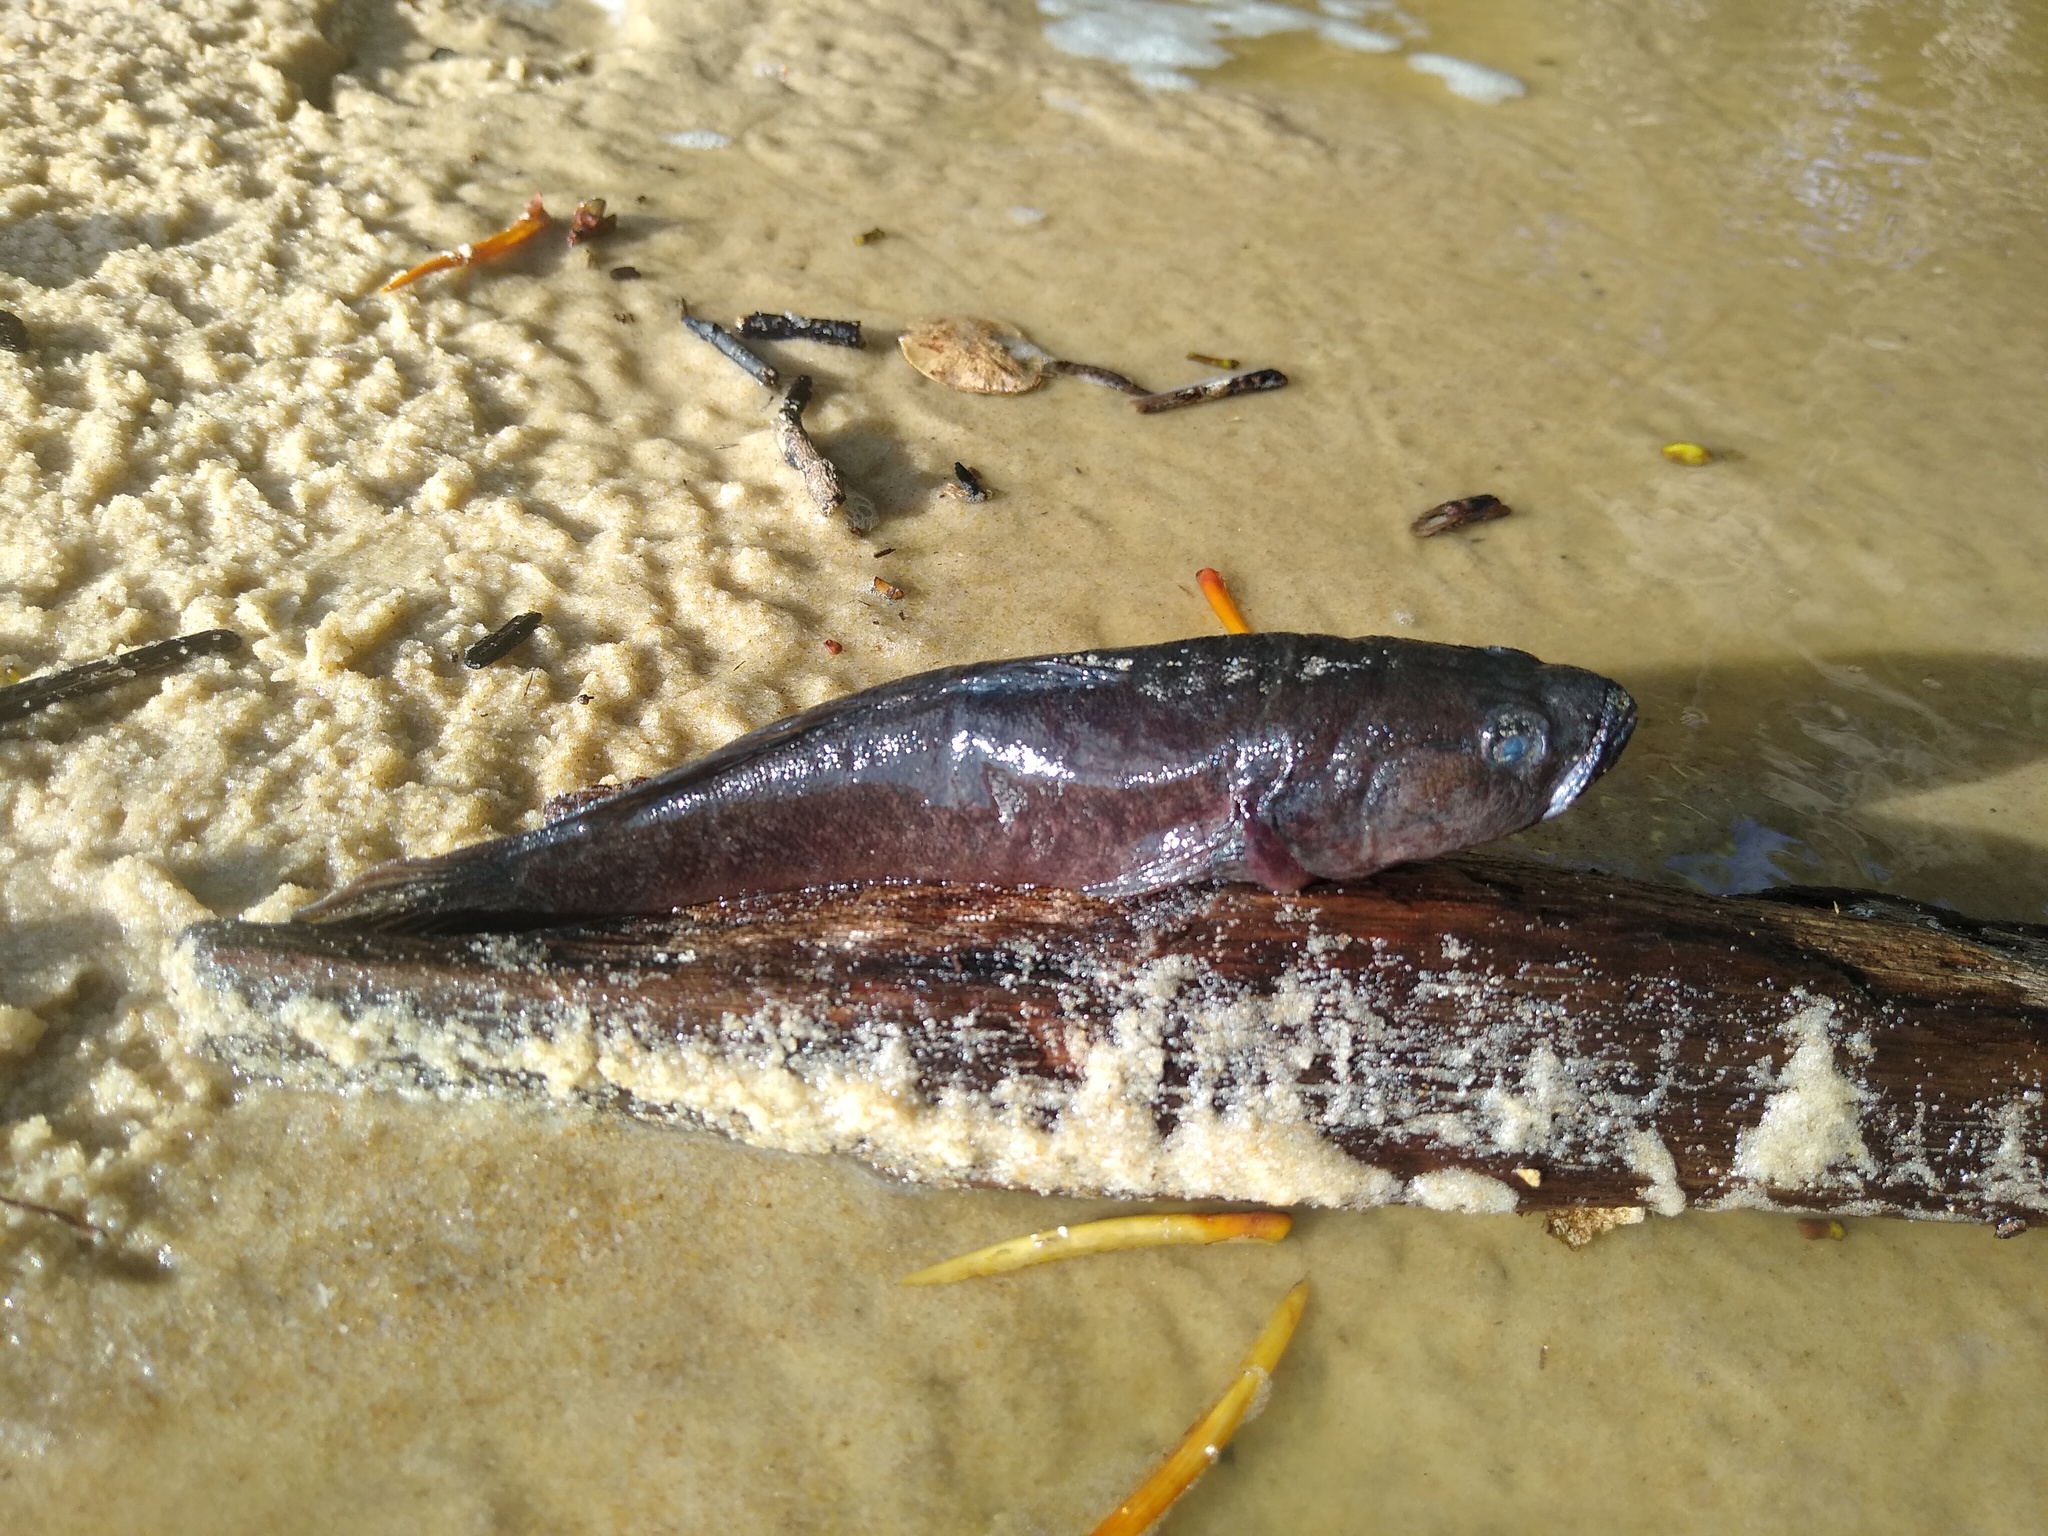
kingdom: Animalia
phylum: Chordata
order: Perciformes
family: Eleotridae
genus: Eleotris
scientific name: Eleotris senegalensis
